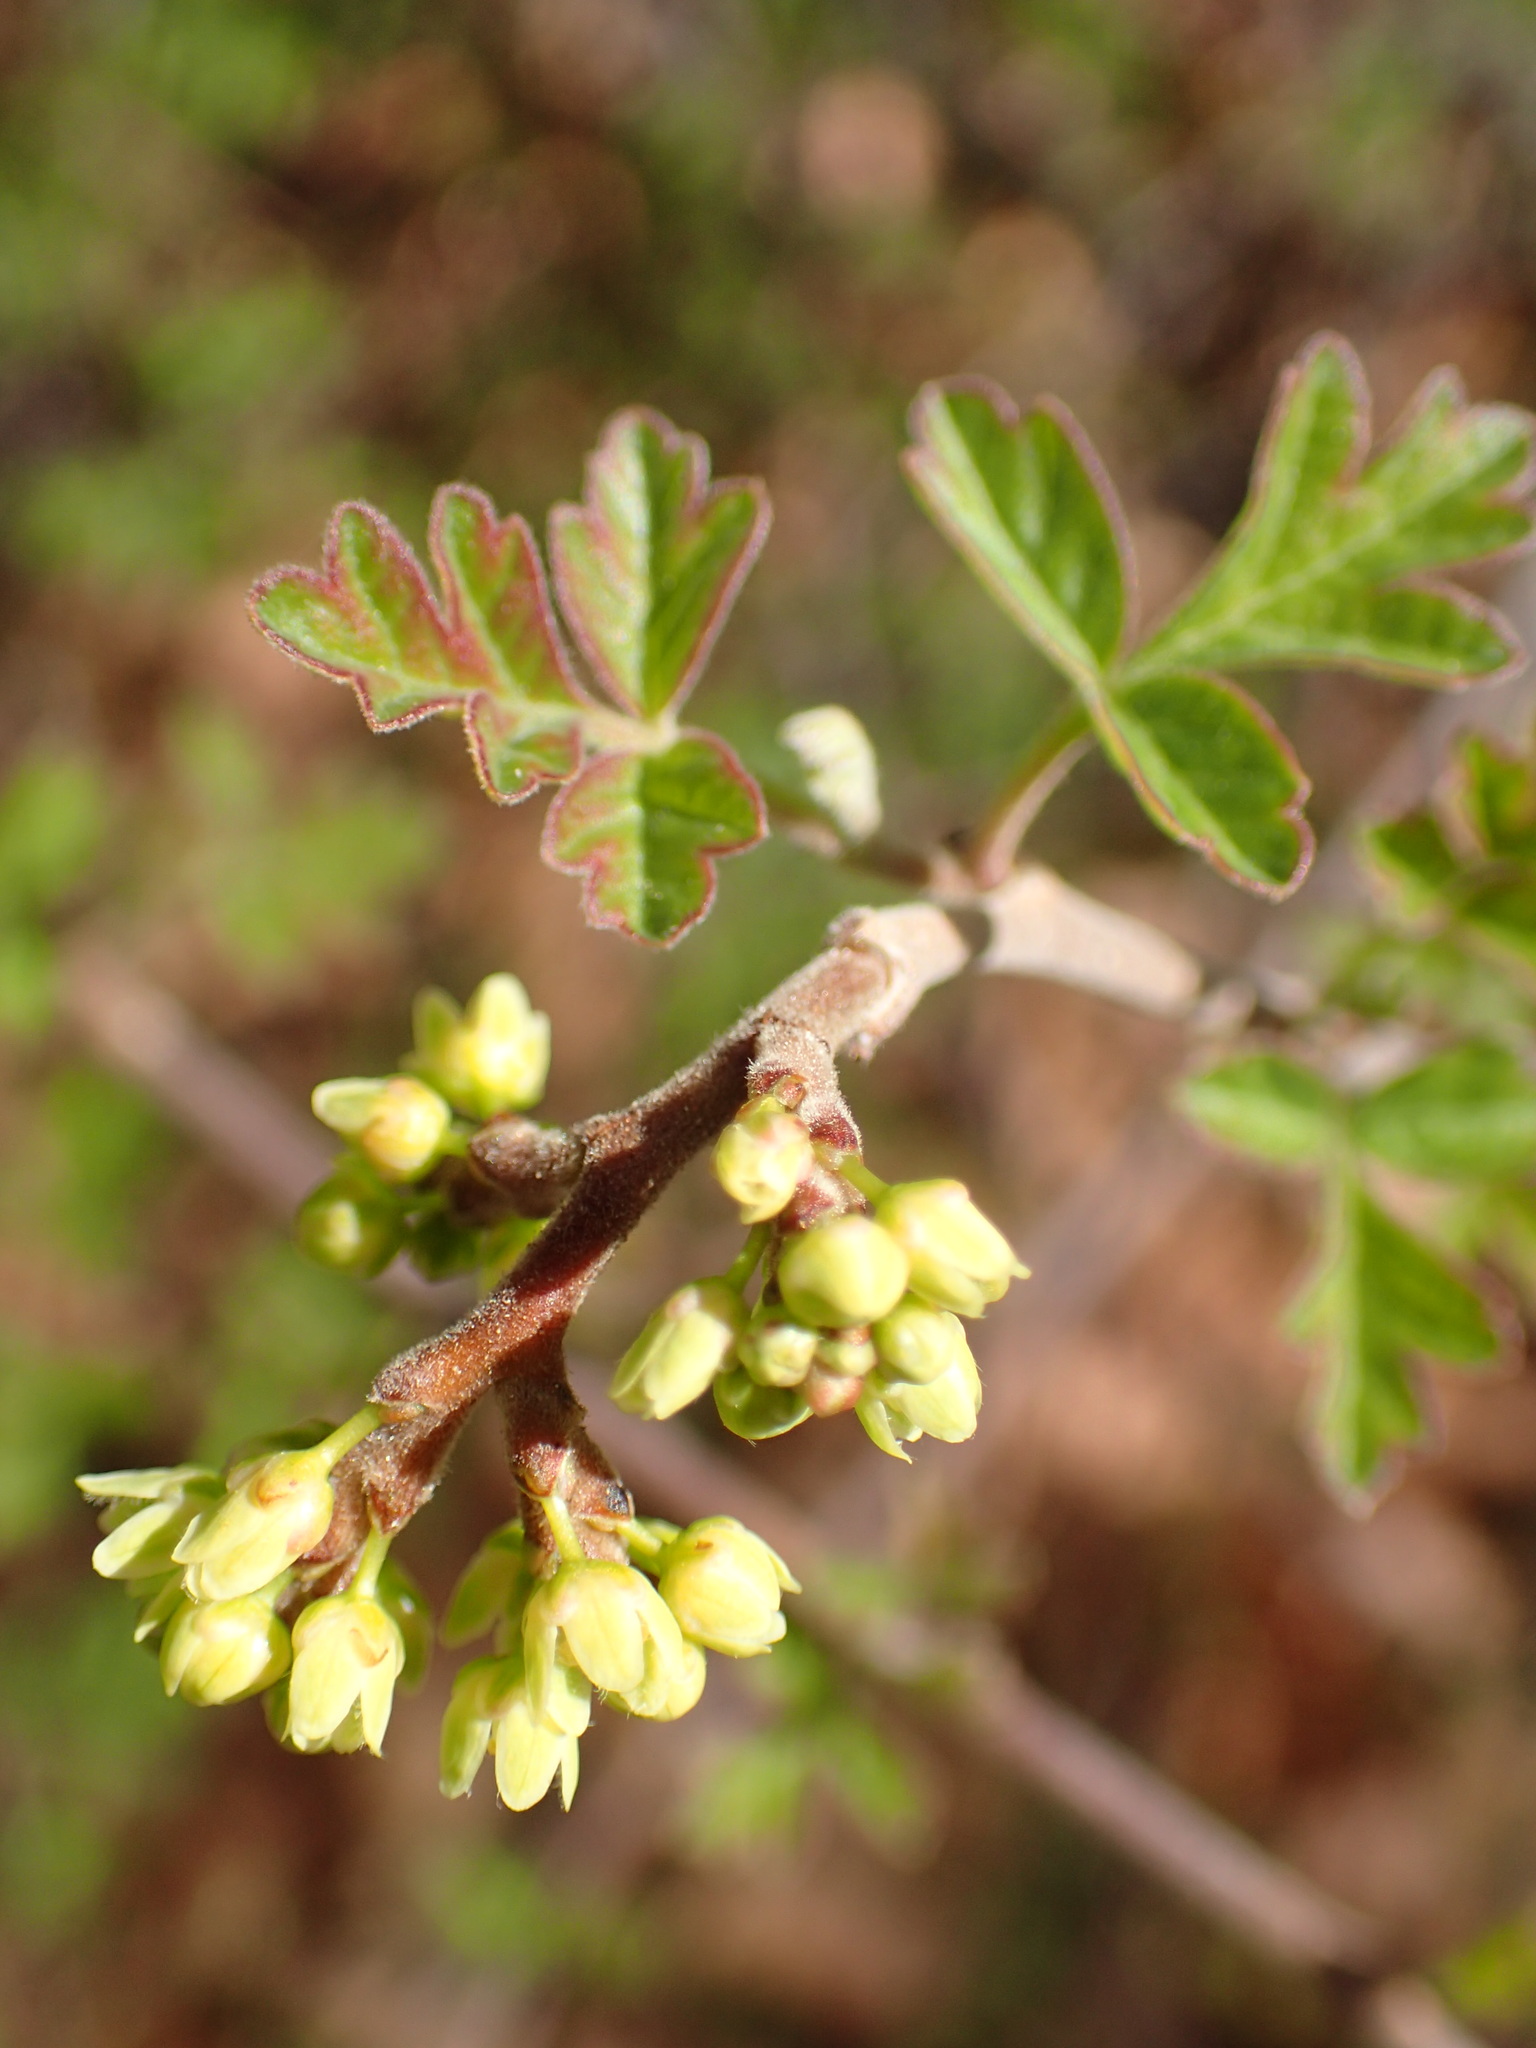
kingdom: Plantae
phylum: Tracheophyta
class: Magnoliopsida
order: Sapindales
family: Anacardiaceae
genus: Rhus
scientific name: Rhus aromatica
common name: Aromatic sumac
